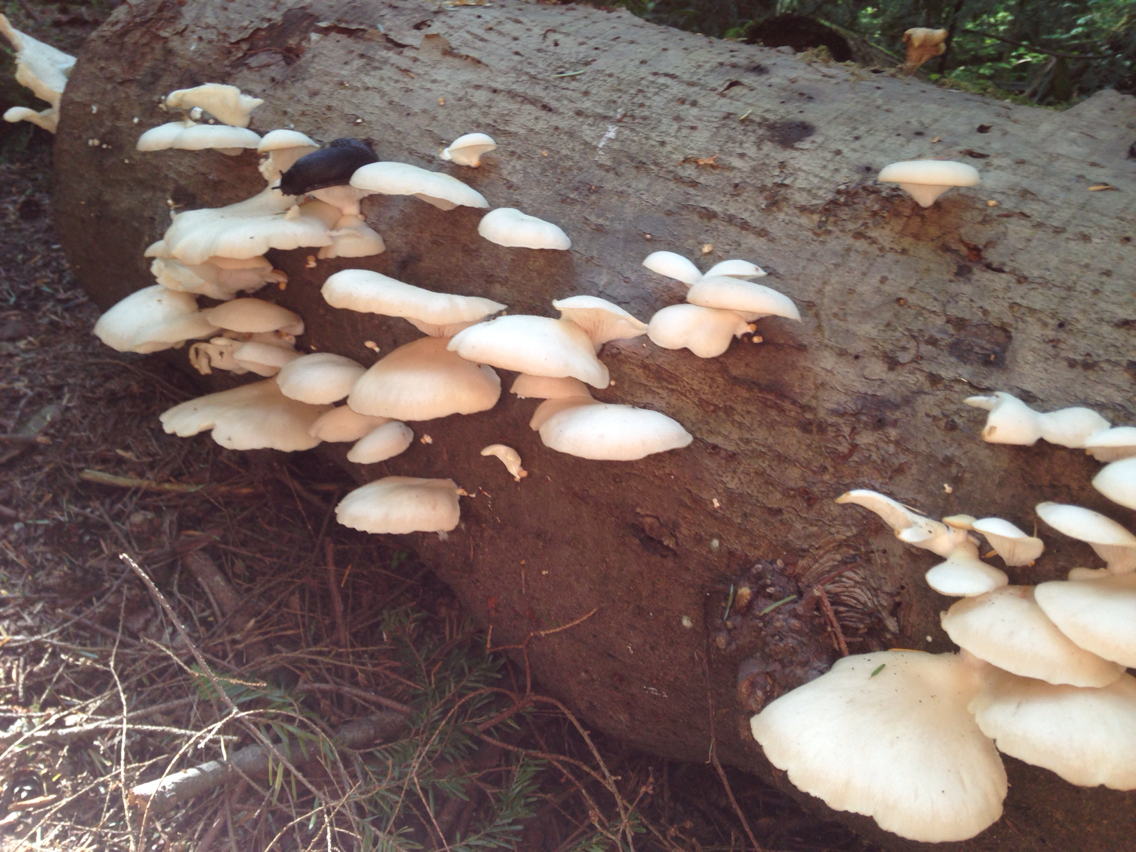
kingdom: Fungi
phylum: Basidiomycota
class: Agaricomycetes
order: Agaricales
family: Pleurotaceae
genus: Pleurotus
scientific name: Pleurotus ostreatus
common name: Oyster mushroom
